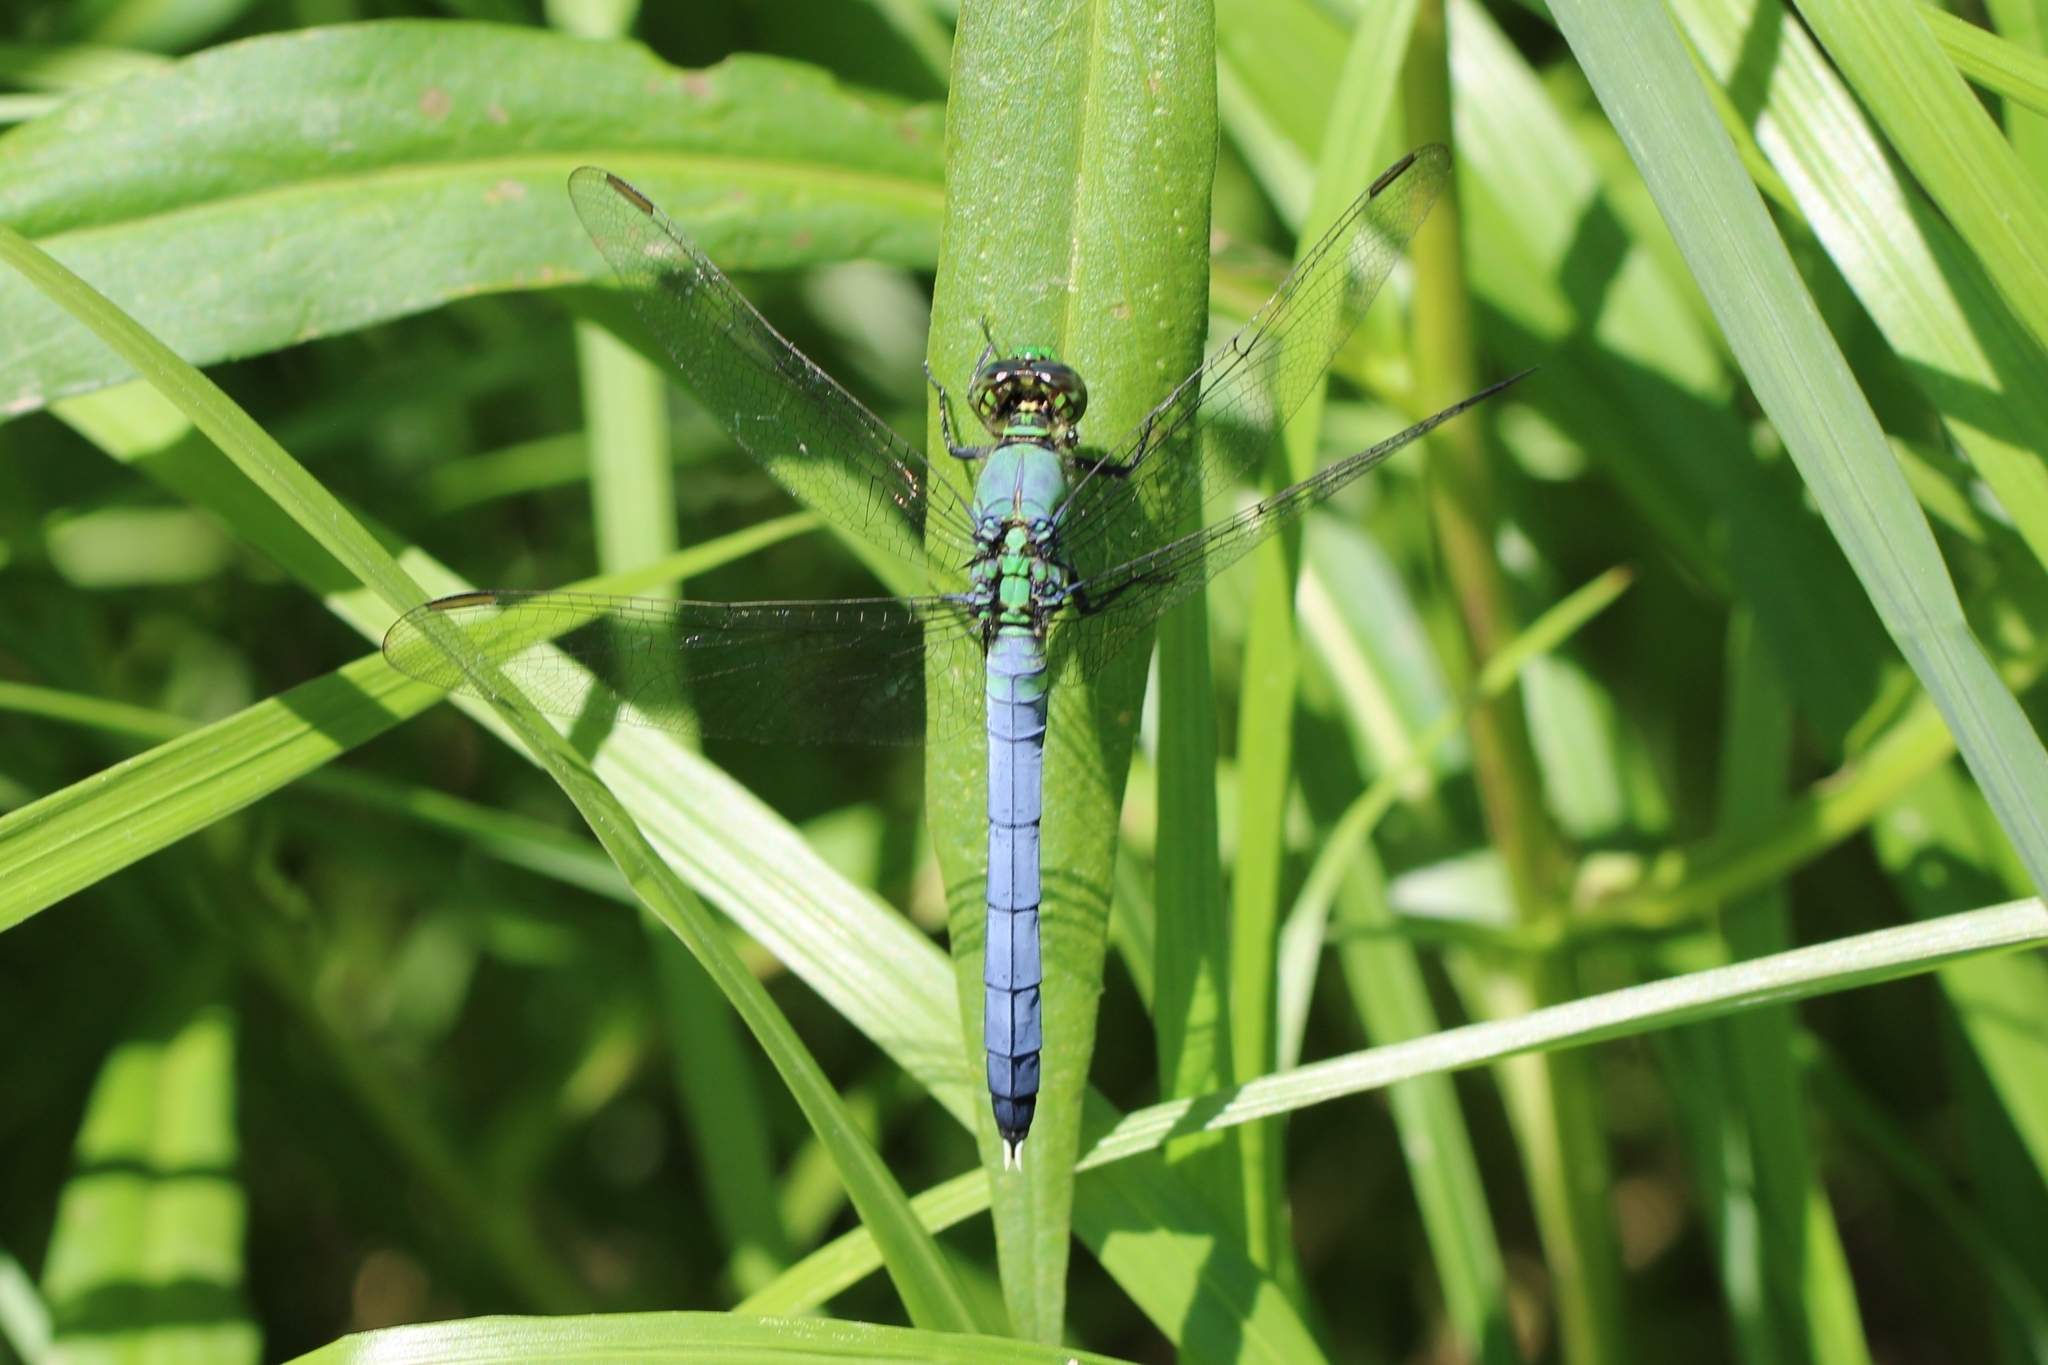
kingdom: Animalia
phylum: Arthropoda
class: Insecta
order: Odonata
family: Libellulidae
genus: Erythemis
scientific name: Erythemis simplicicollis
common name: Eastern pondhawk
